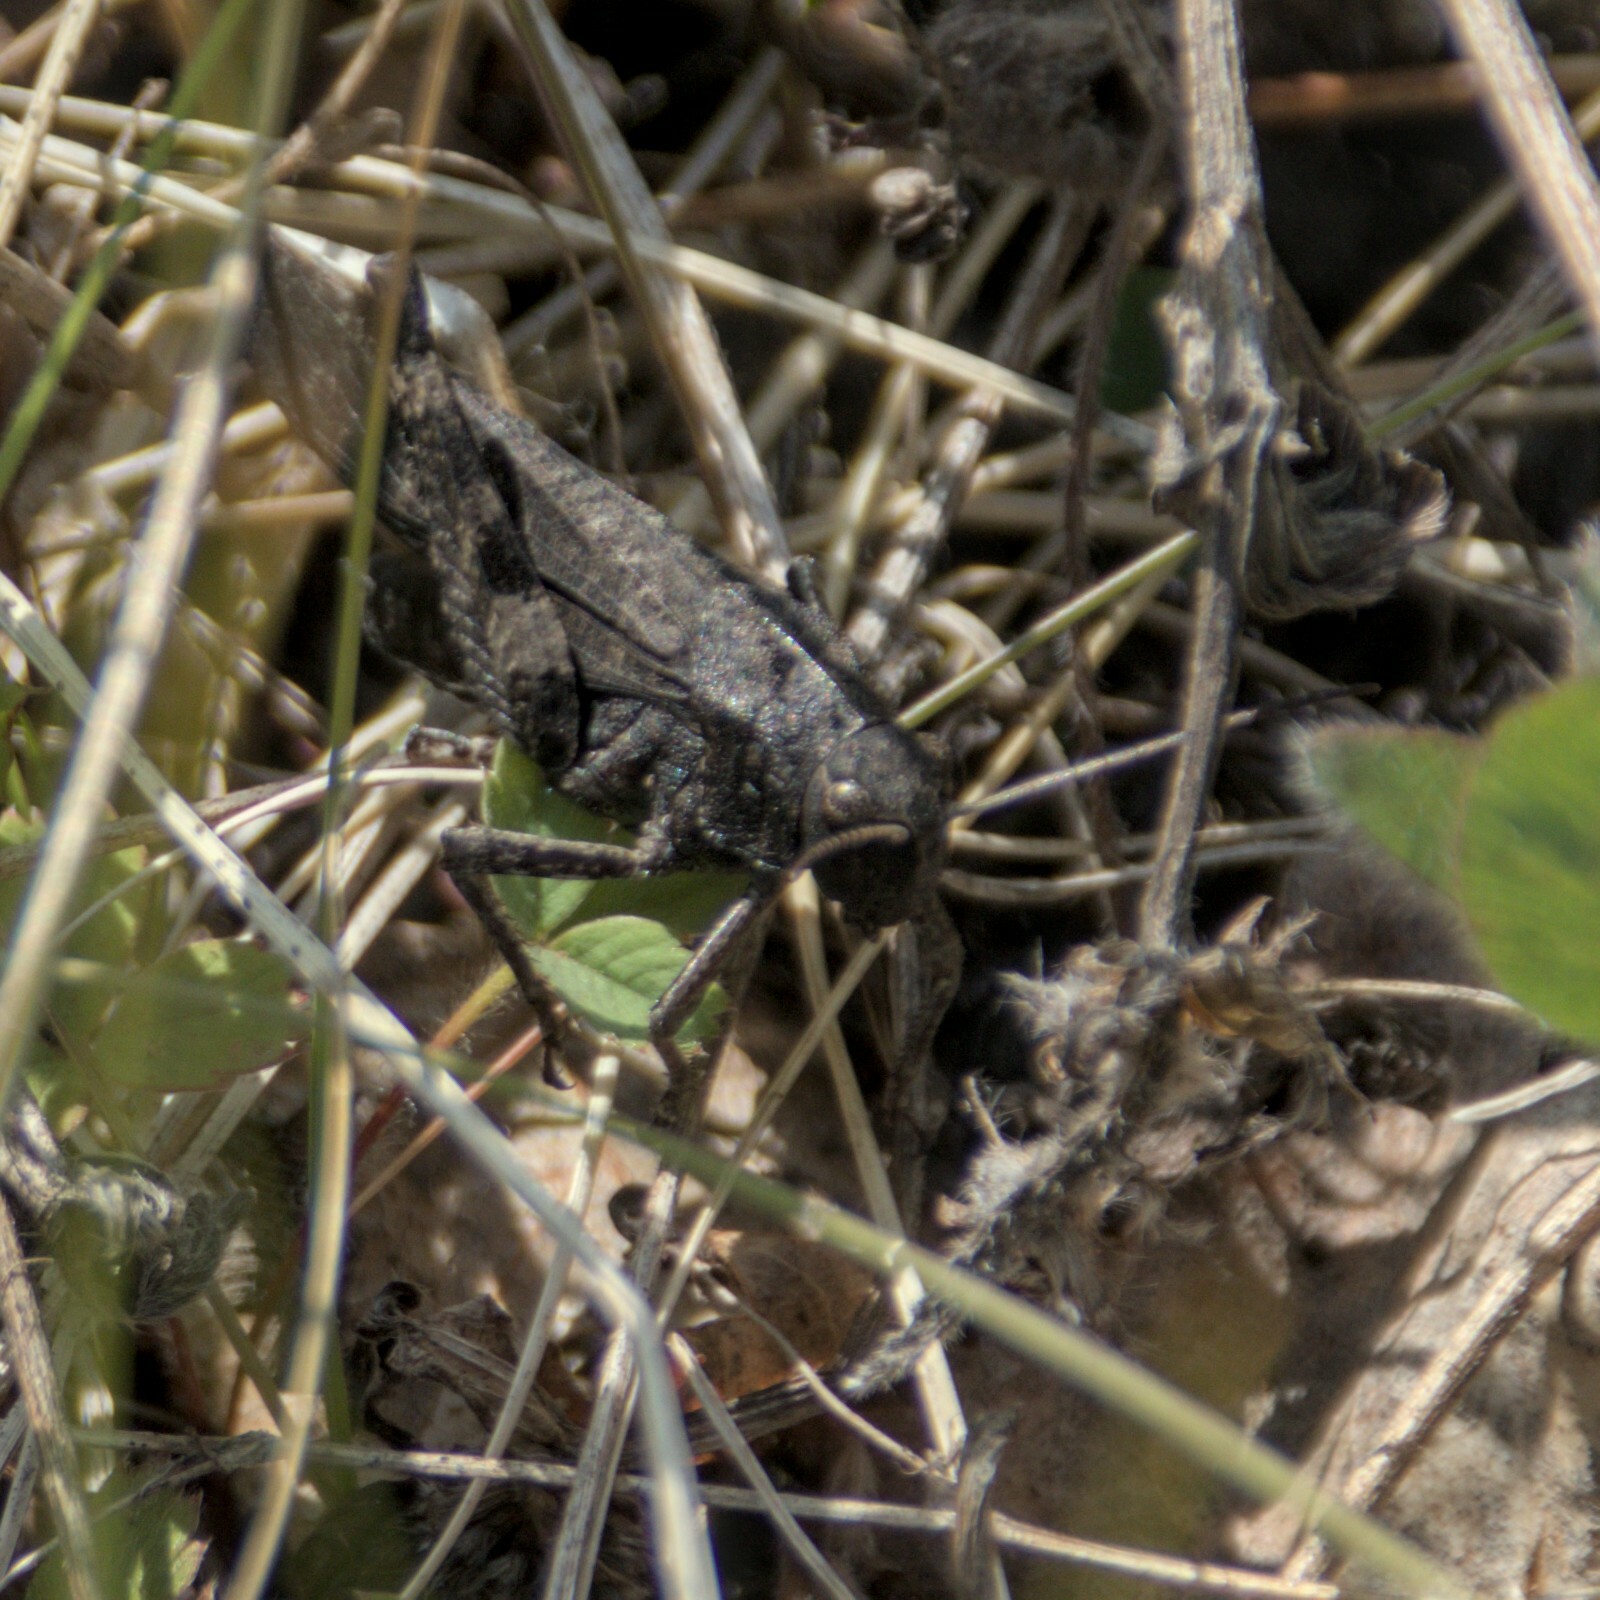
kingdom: Animalia
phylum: Arthropoda
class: Insecta
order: Orthoptera
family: Acrididae
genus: Psophus
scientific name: Psophus stridulus
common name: Rattle grasshopper
